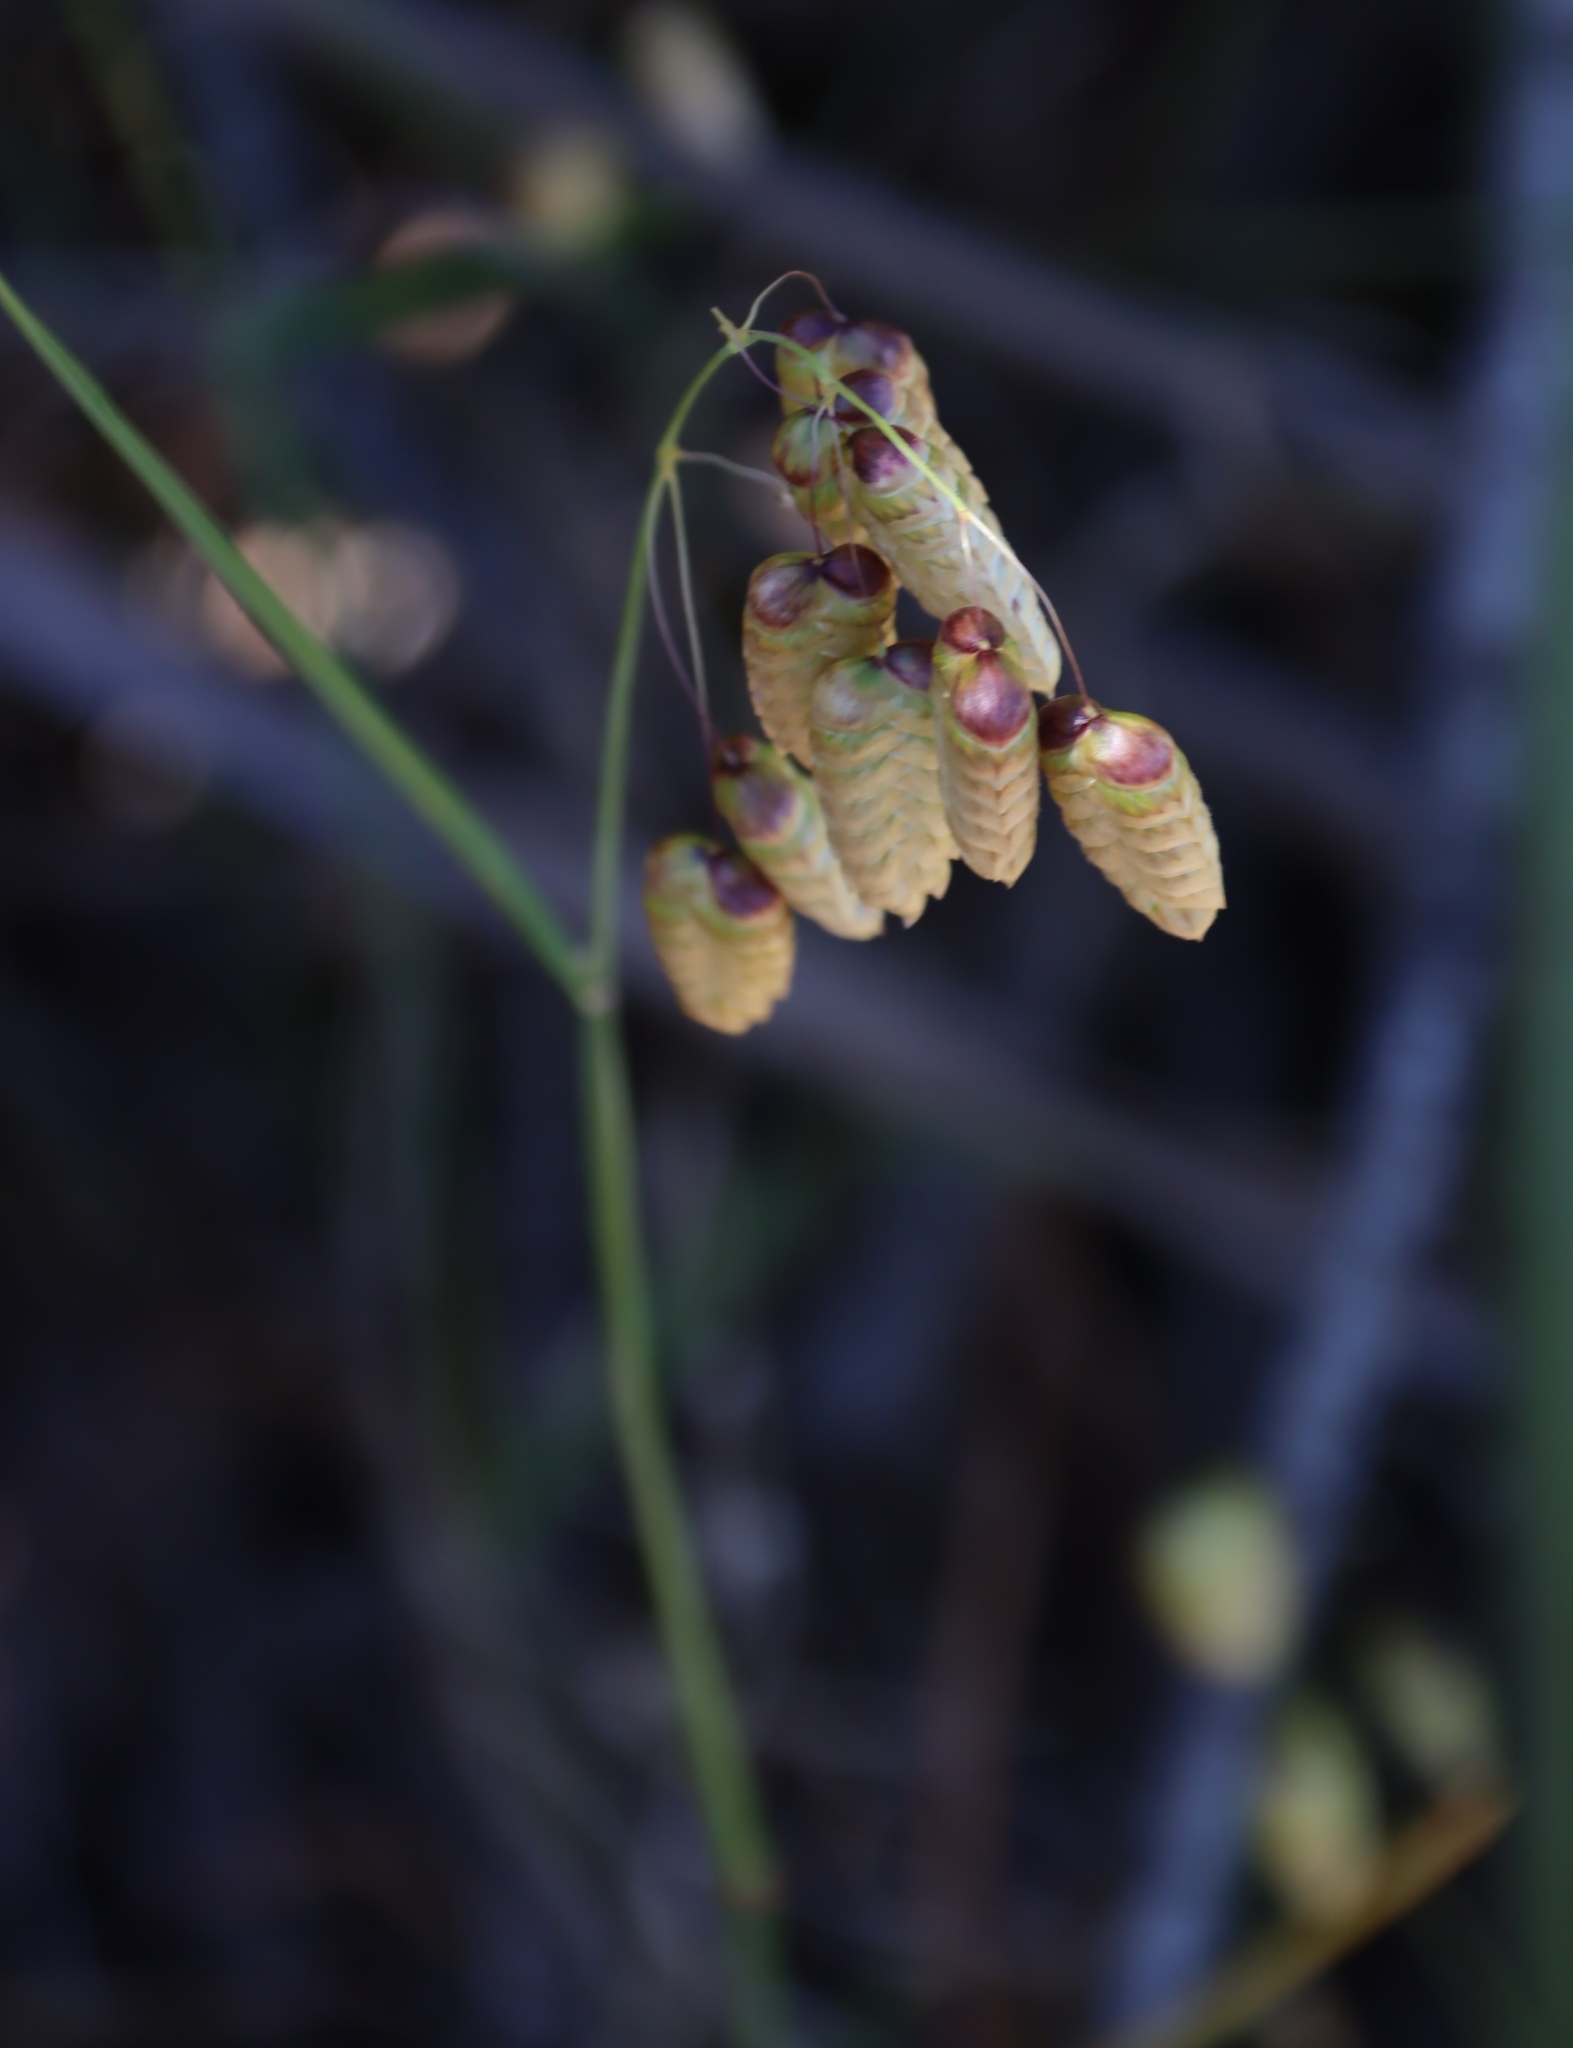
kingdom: Plantae
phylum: Tracheophyta
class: Liliopsida
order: Poales
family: Poaceae
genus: Briza
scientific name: Briza maxima
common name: Big quakinggrass
